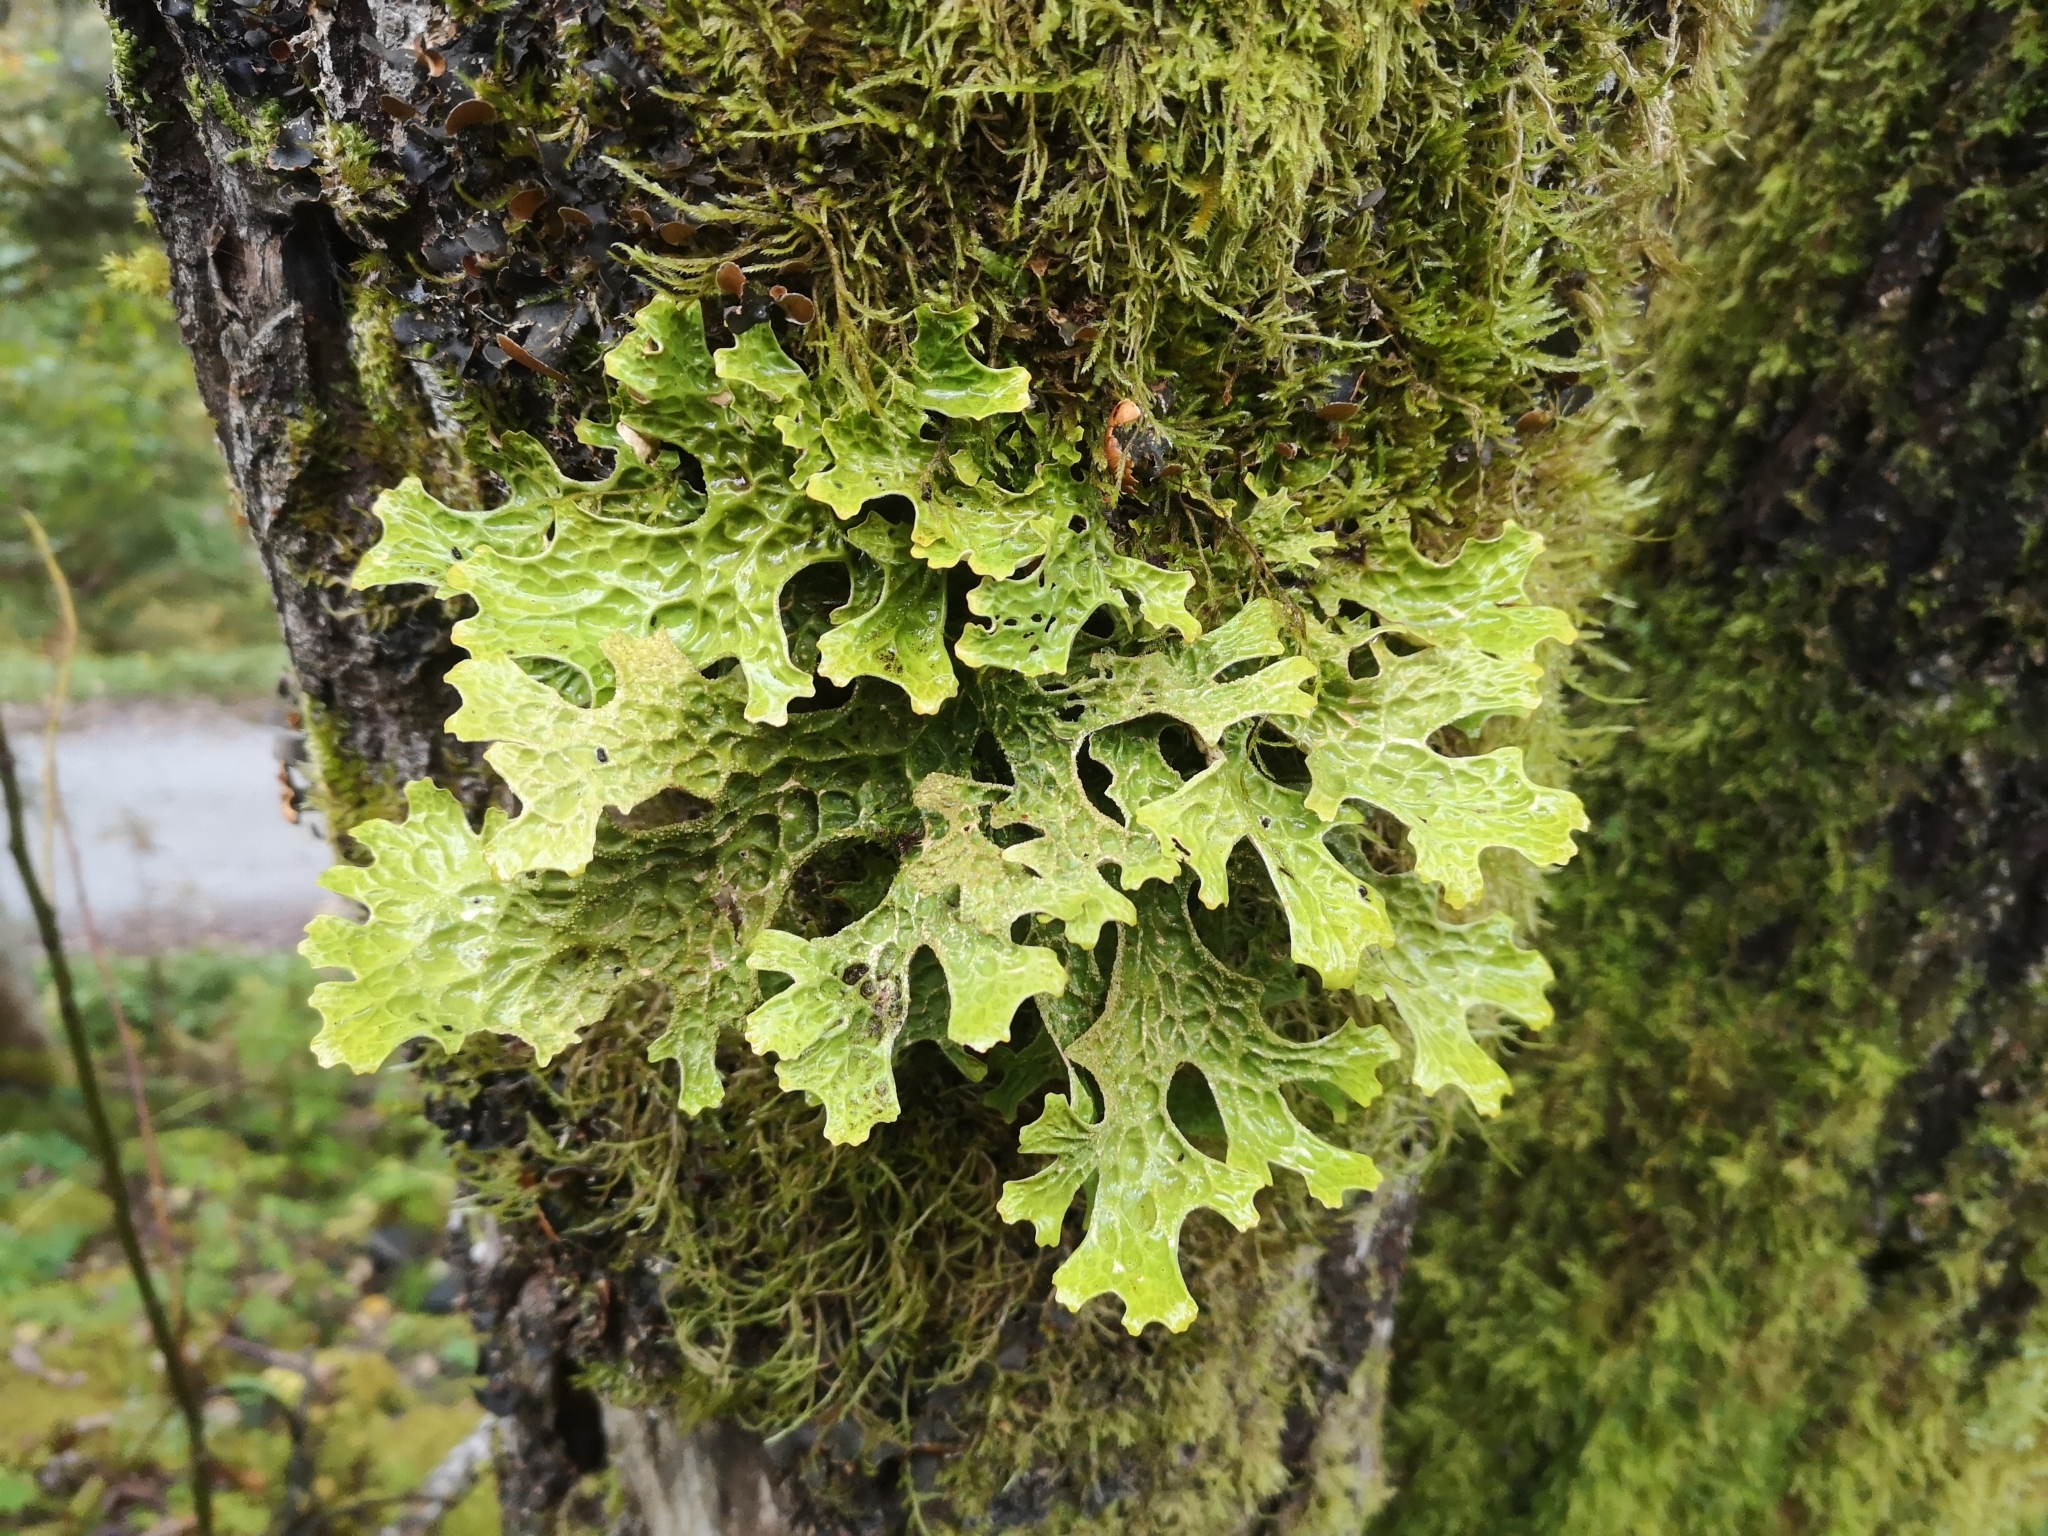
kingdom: Fungi
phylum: Ascomycota
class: Lecanoromycetes
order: Peltigerales
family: Lobariaceae
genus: Lobaria
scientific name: Lobaria pulmonaria
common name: Lungwort
